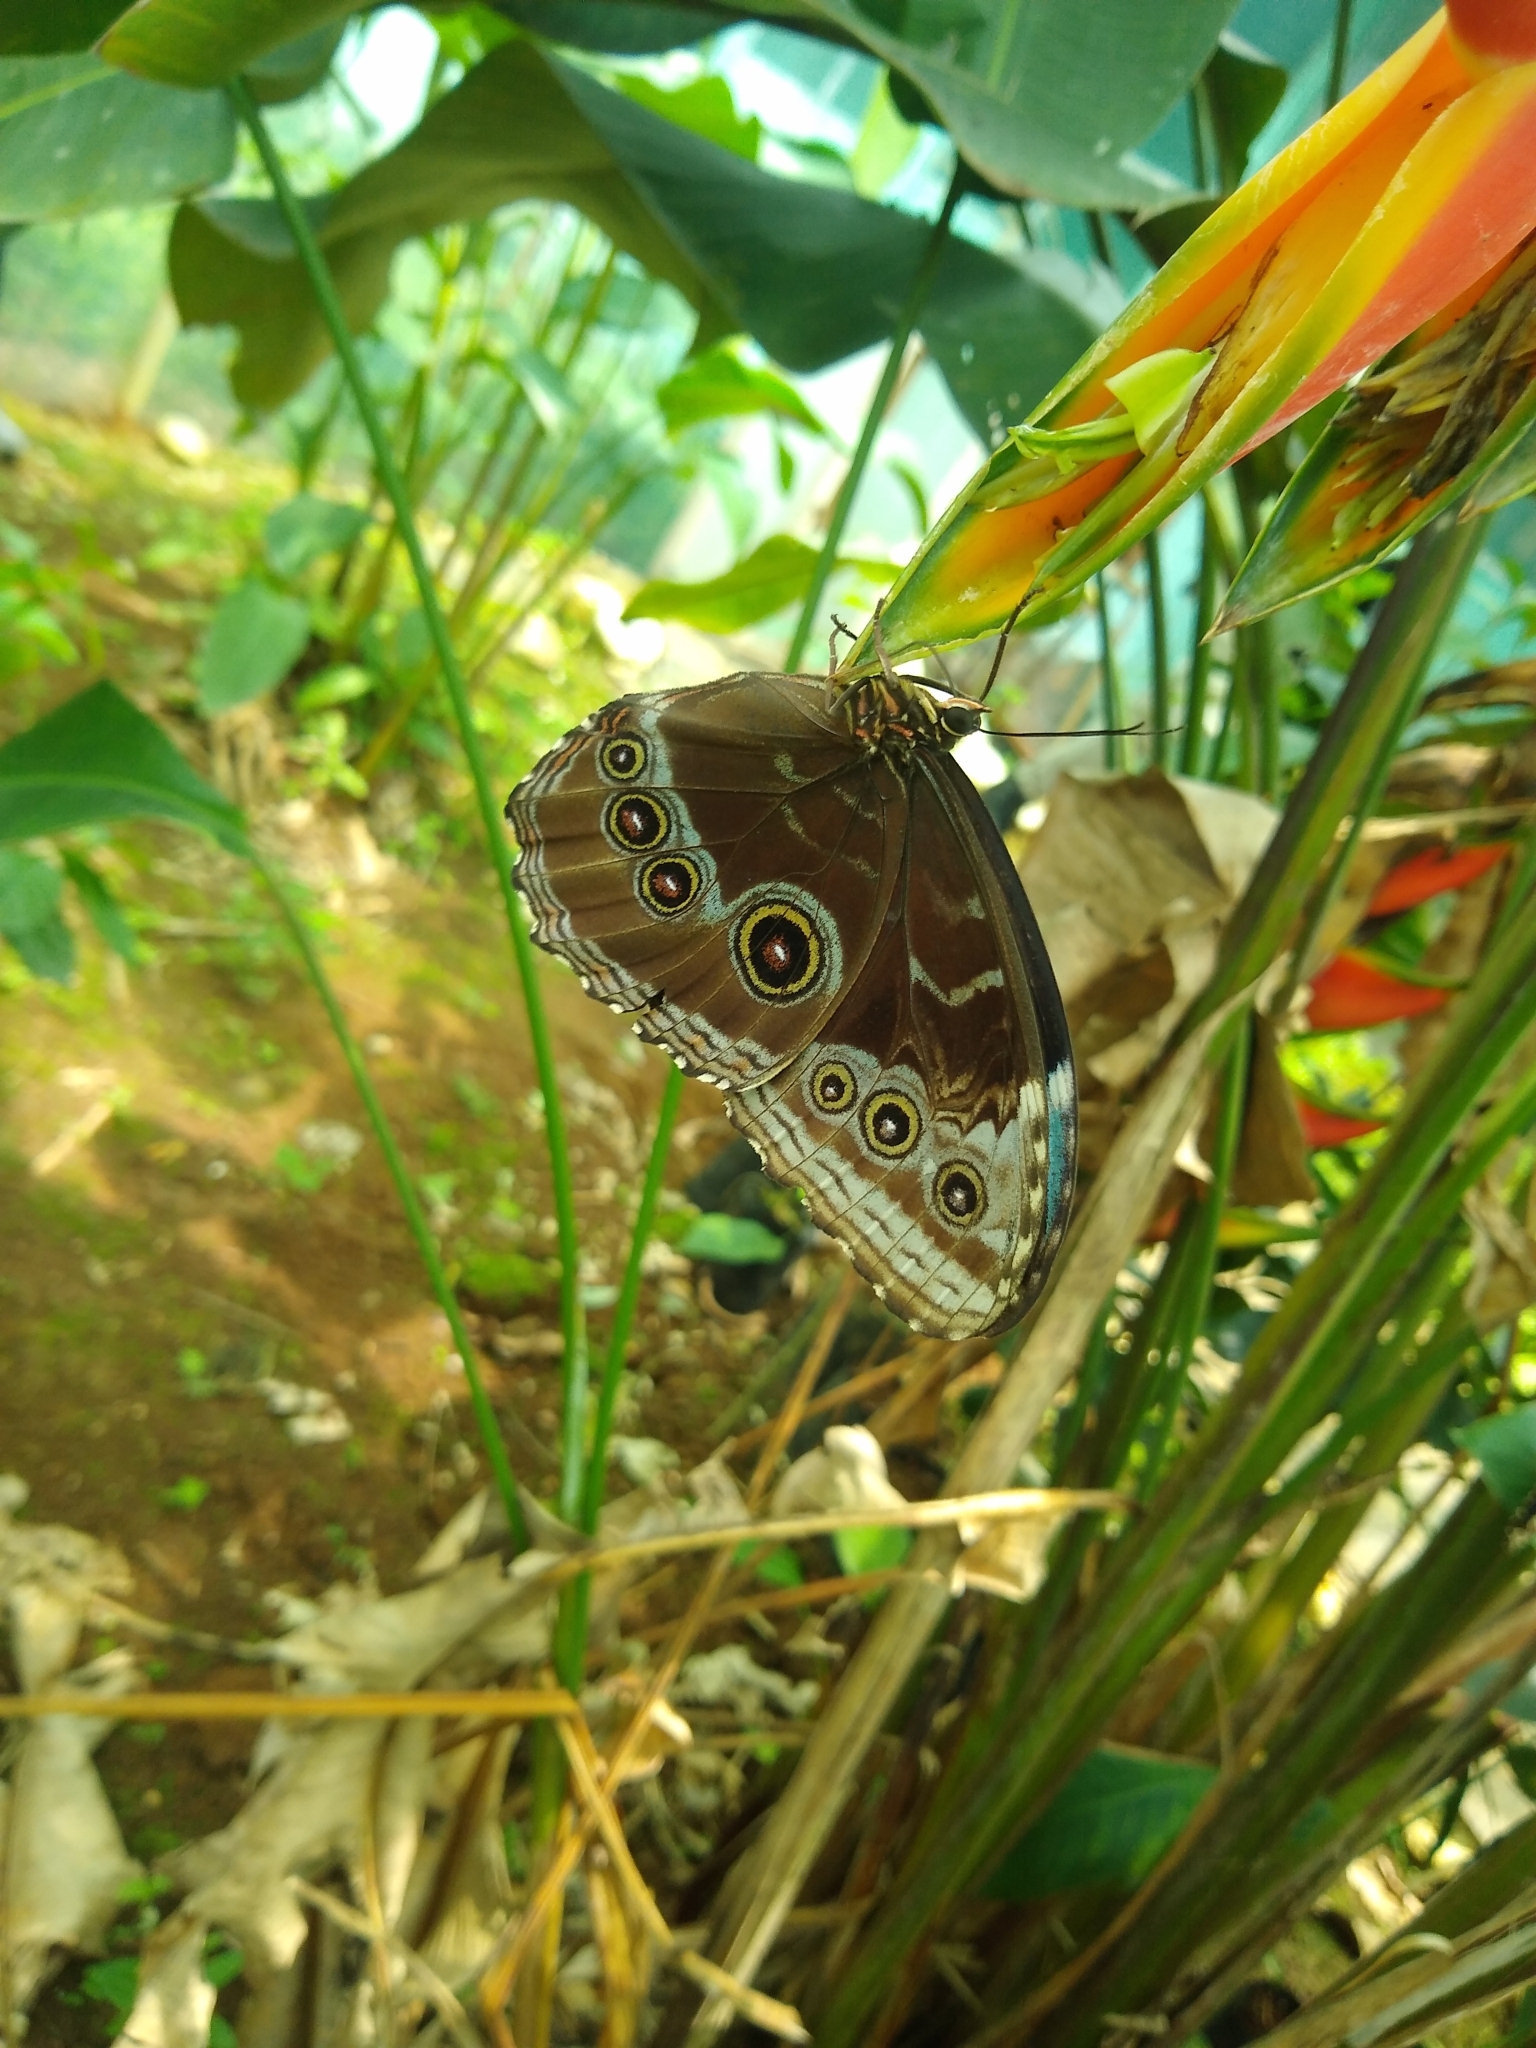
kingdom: Animalia
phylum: Arthropoda
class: Insecta
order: Lepidoptera
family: Nymphalidae
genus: Morpho
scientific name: Morpho helenor
